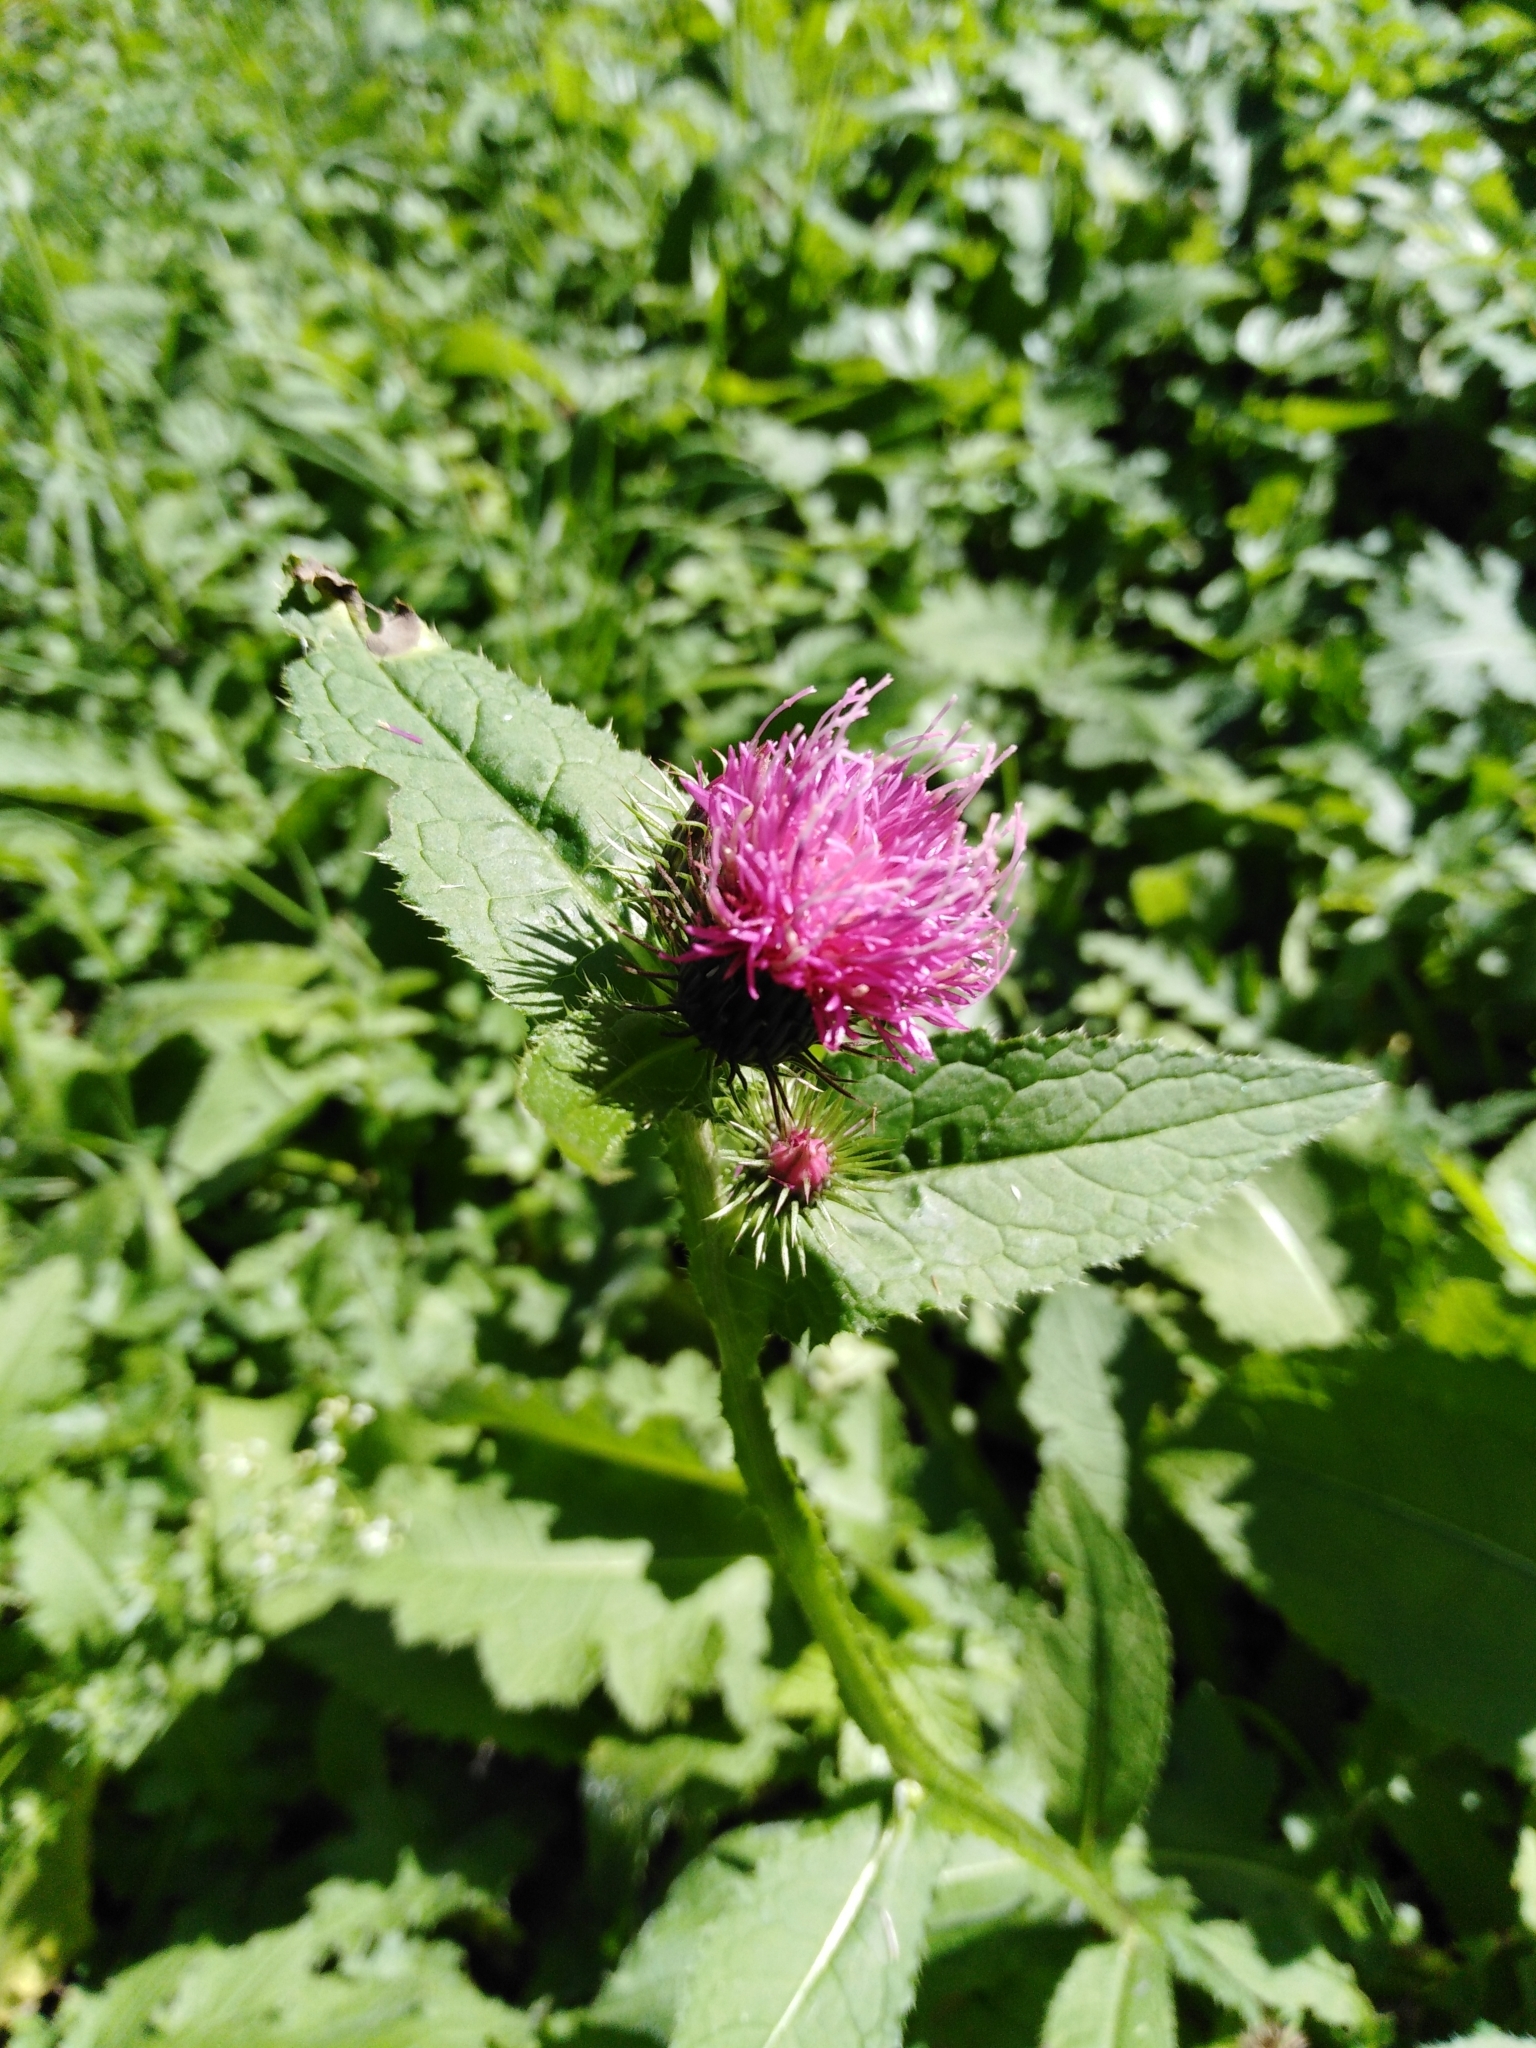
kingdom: Plantae
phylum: Tracheophyta
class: Magnoliopsida
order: Asterales
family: Asteraceae
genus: Carduus
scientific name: Carduus personata
